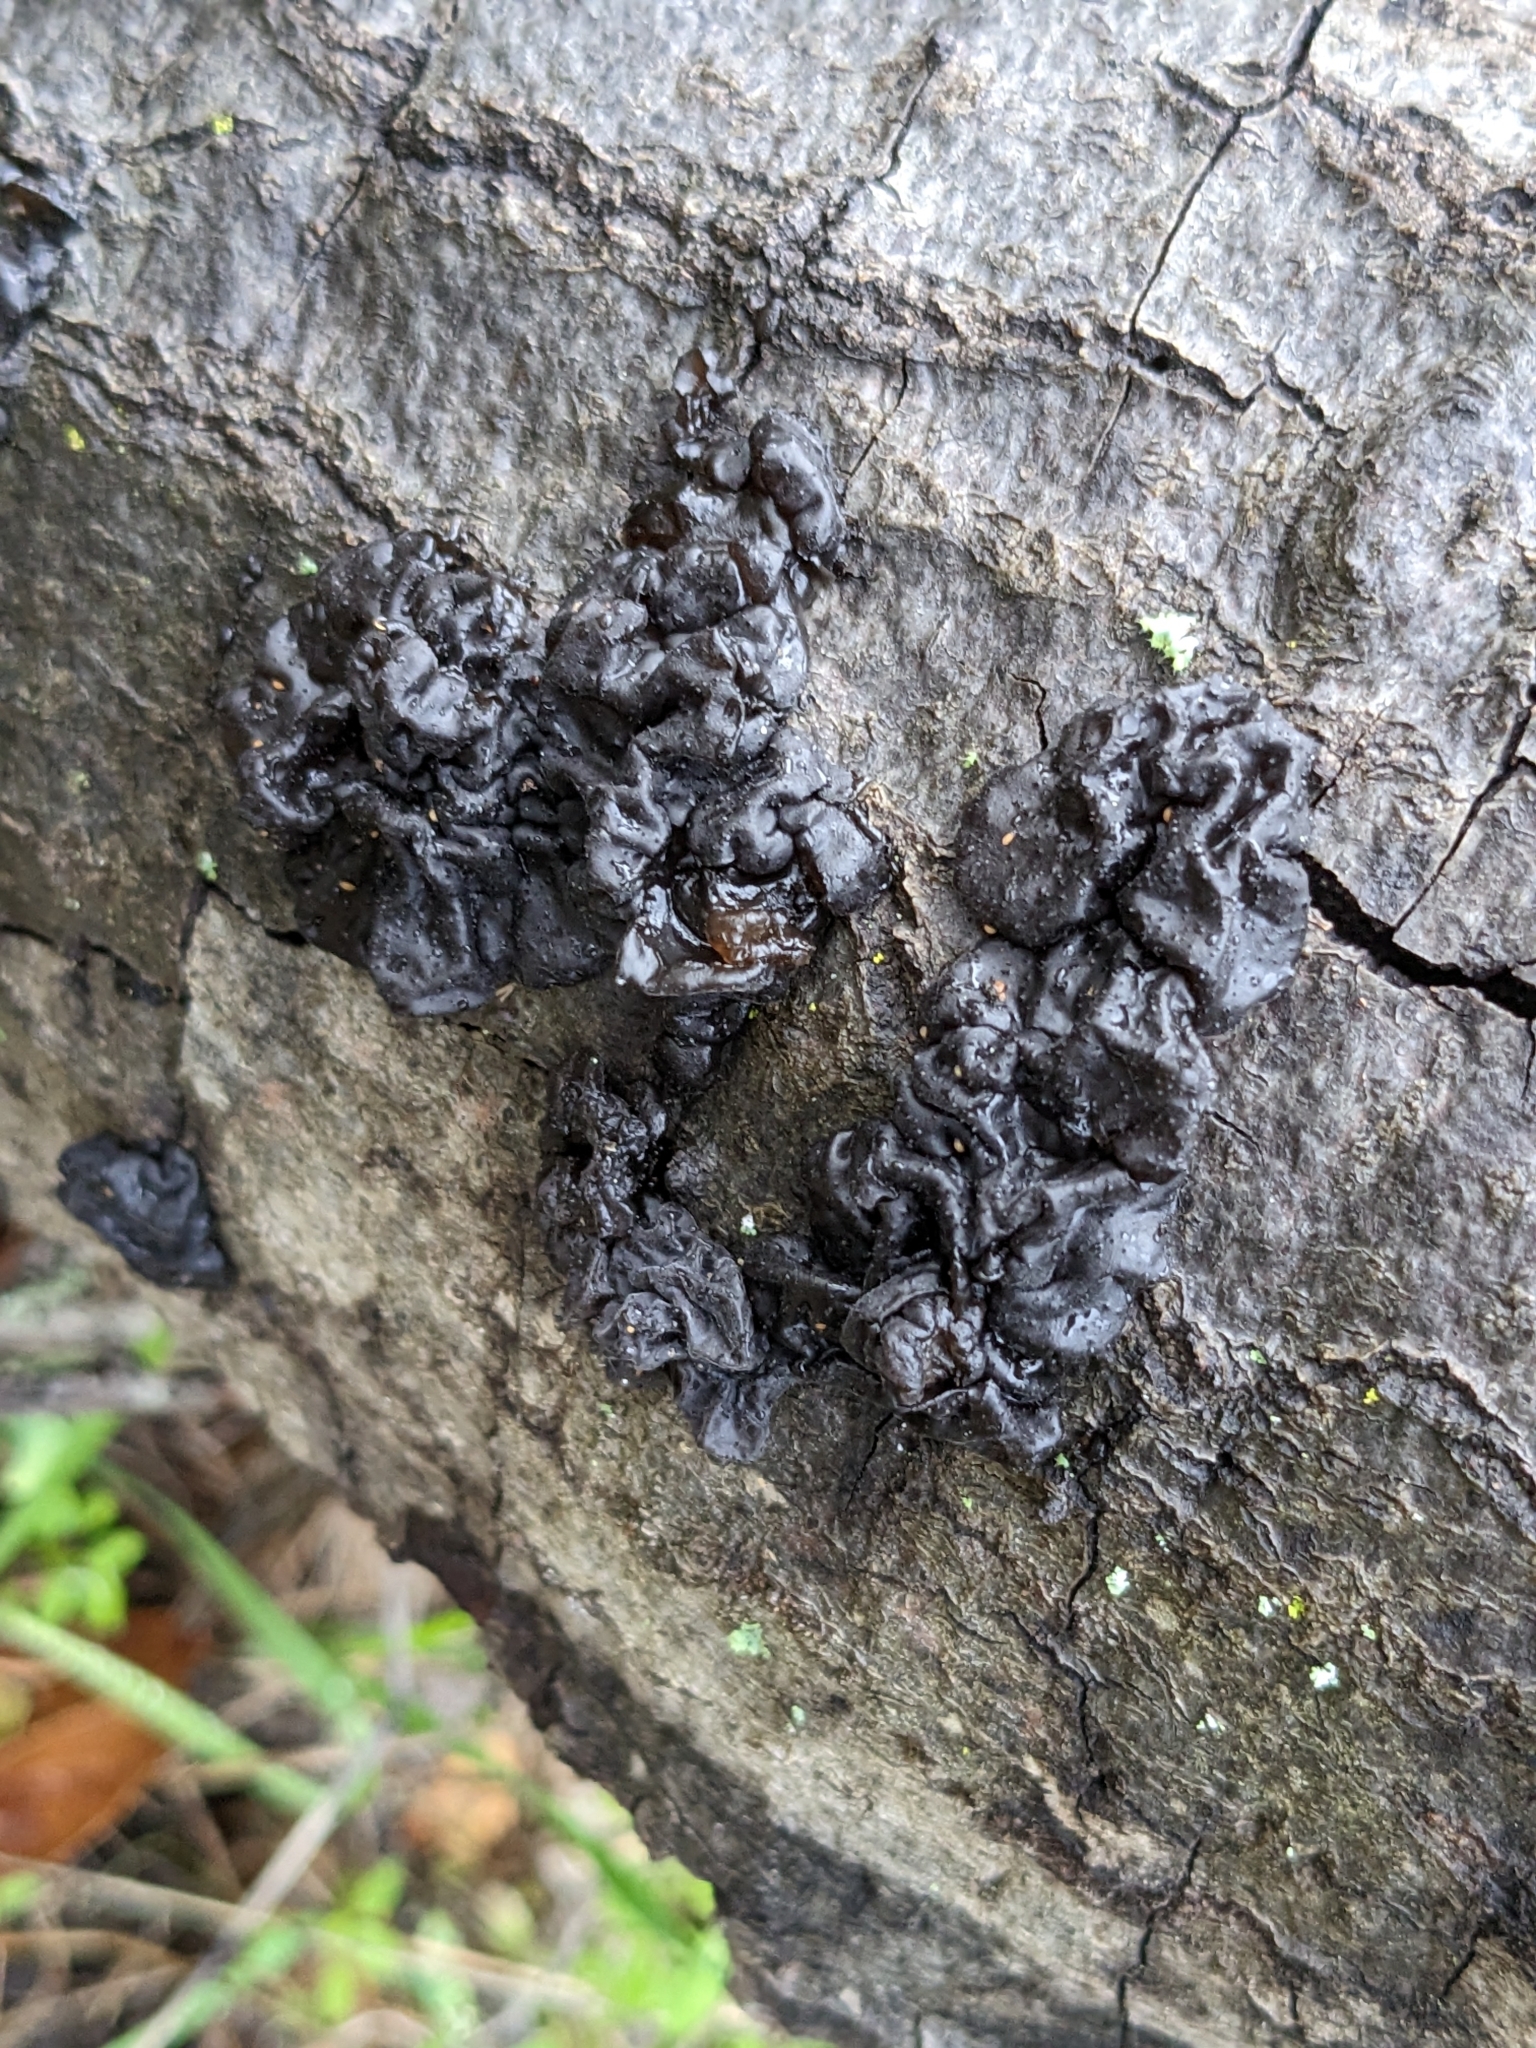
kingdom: Fungi
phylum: Basidiomycota
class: Agaricomycetes
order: Auriculariales
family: Auriculariaceae
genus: Exidia
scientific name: Exidia glandulosa
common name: Witches' butter
